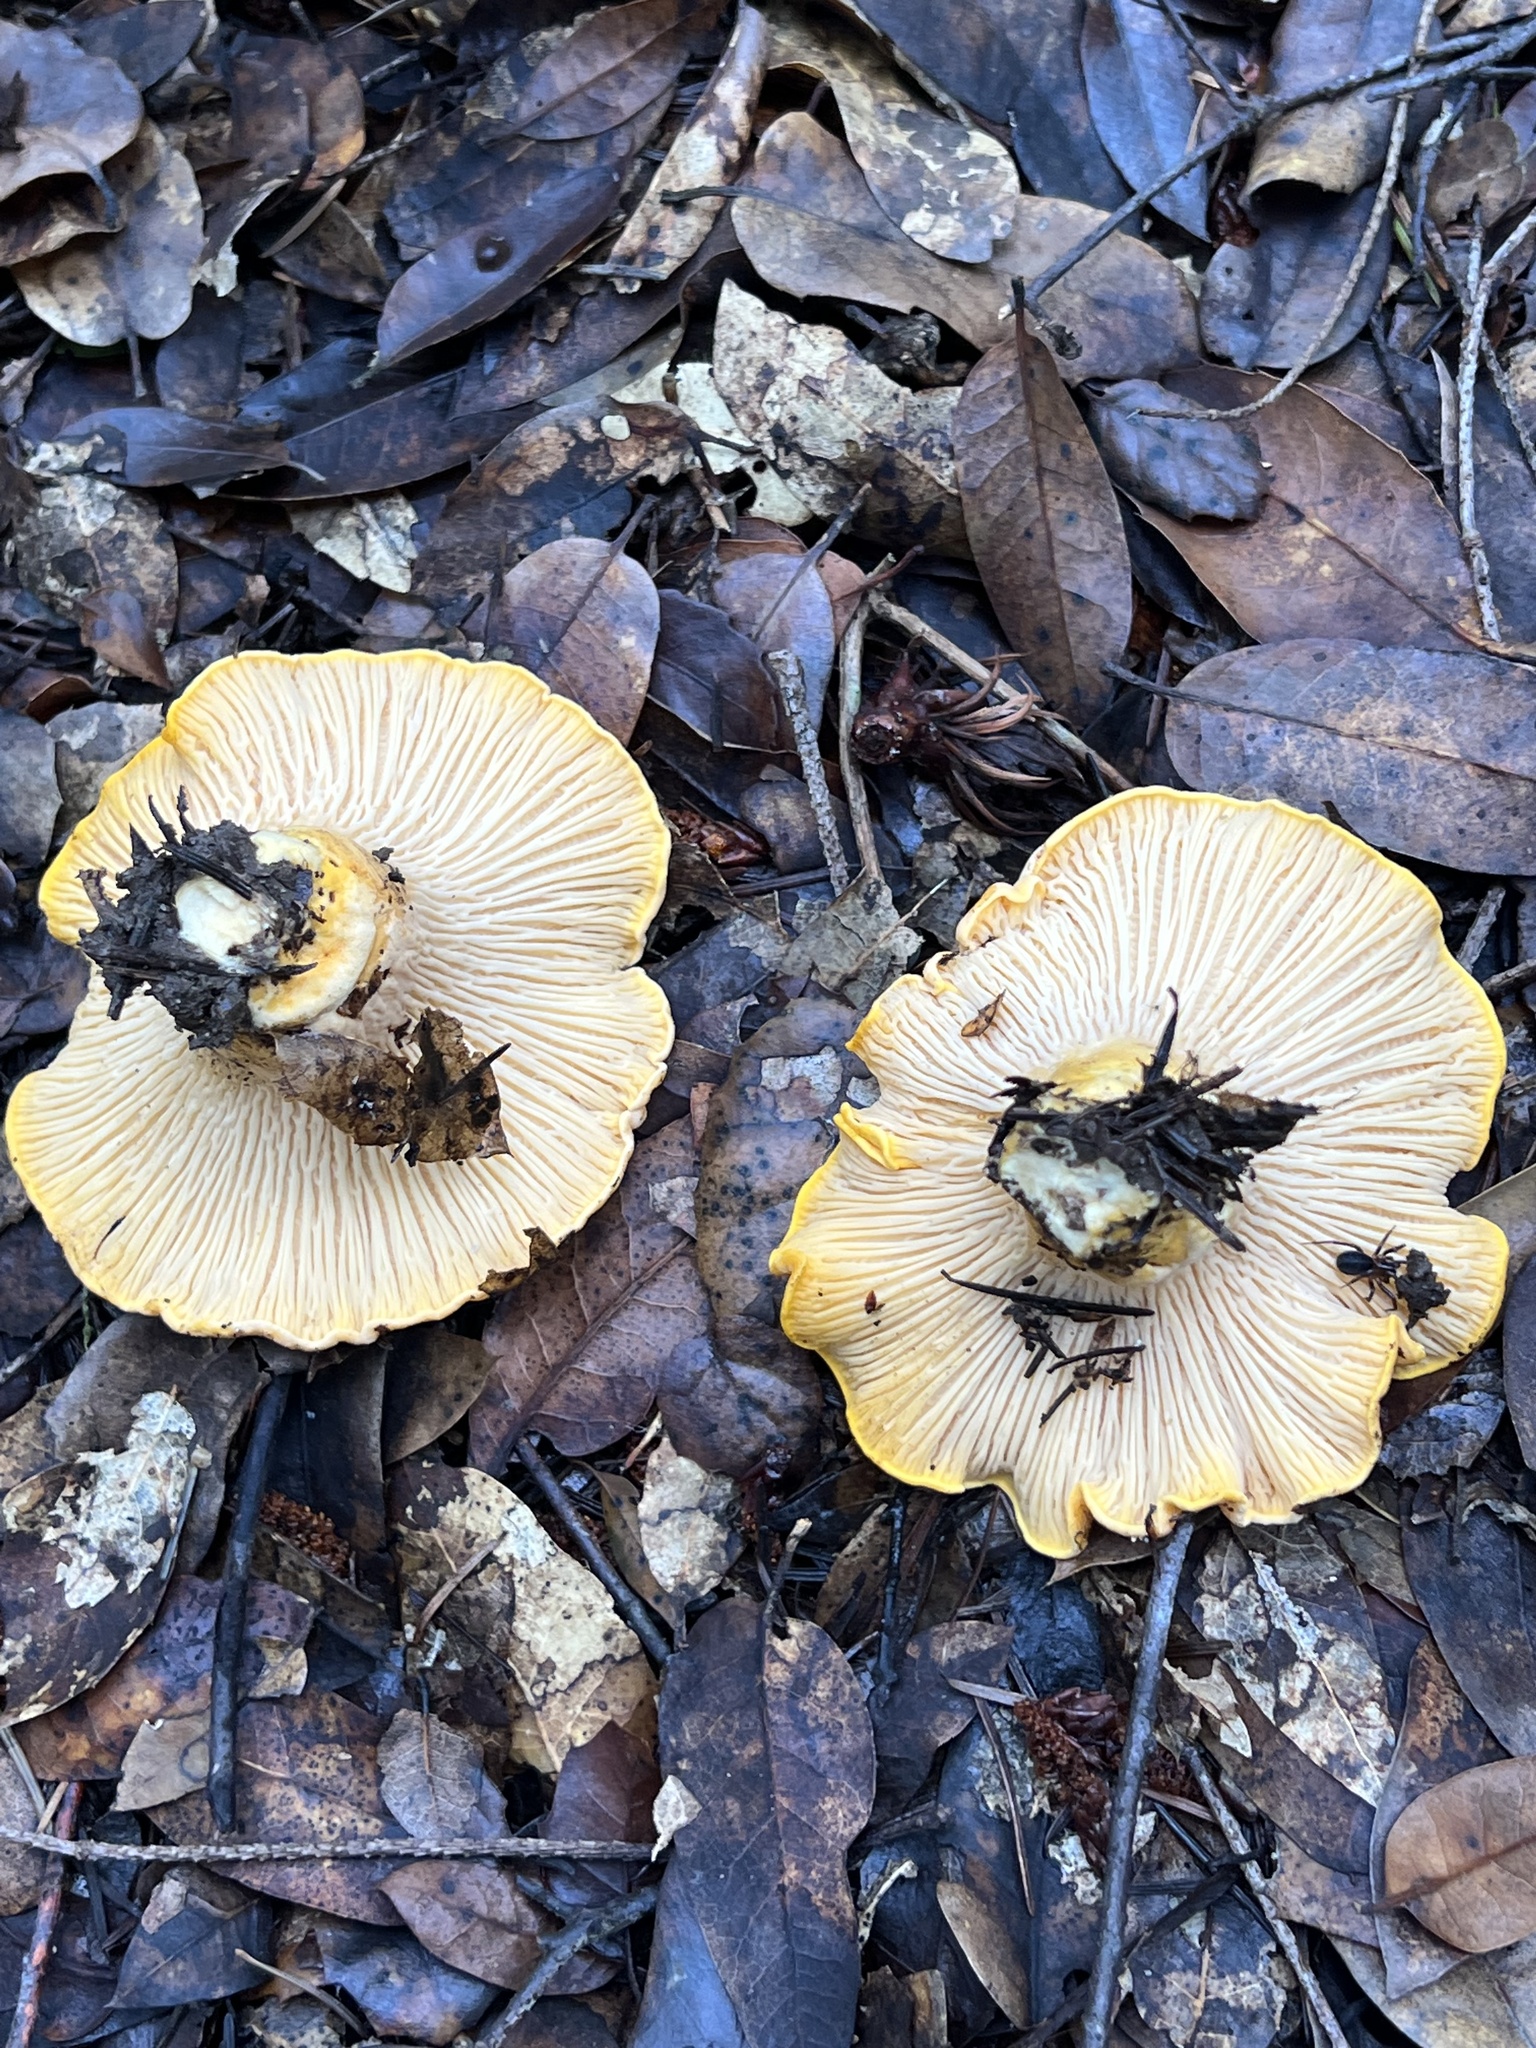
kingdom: Fungi
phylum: Basidiomycota
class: Agaricomycetes
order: Cantharellales
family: Hydnaceae
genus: Cantharellus
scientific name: Cantharellus californicus
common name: California golden chanterelle
